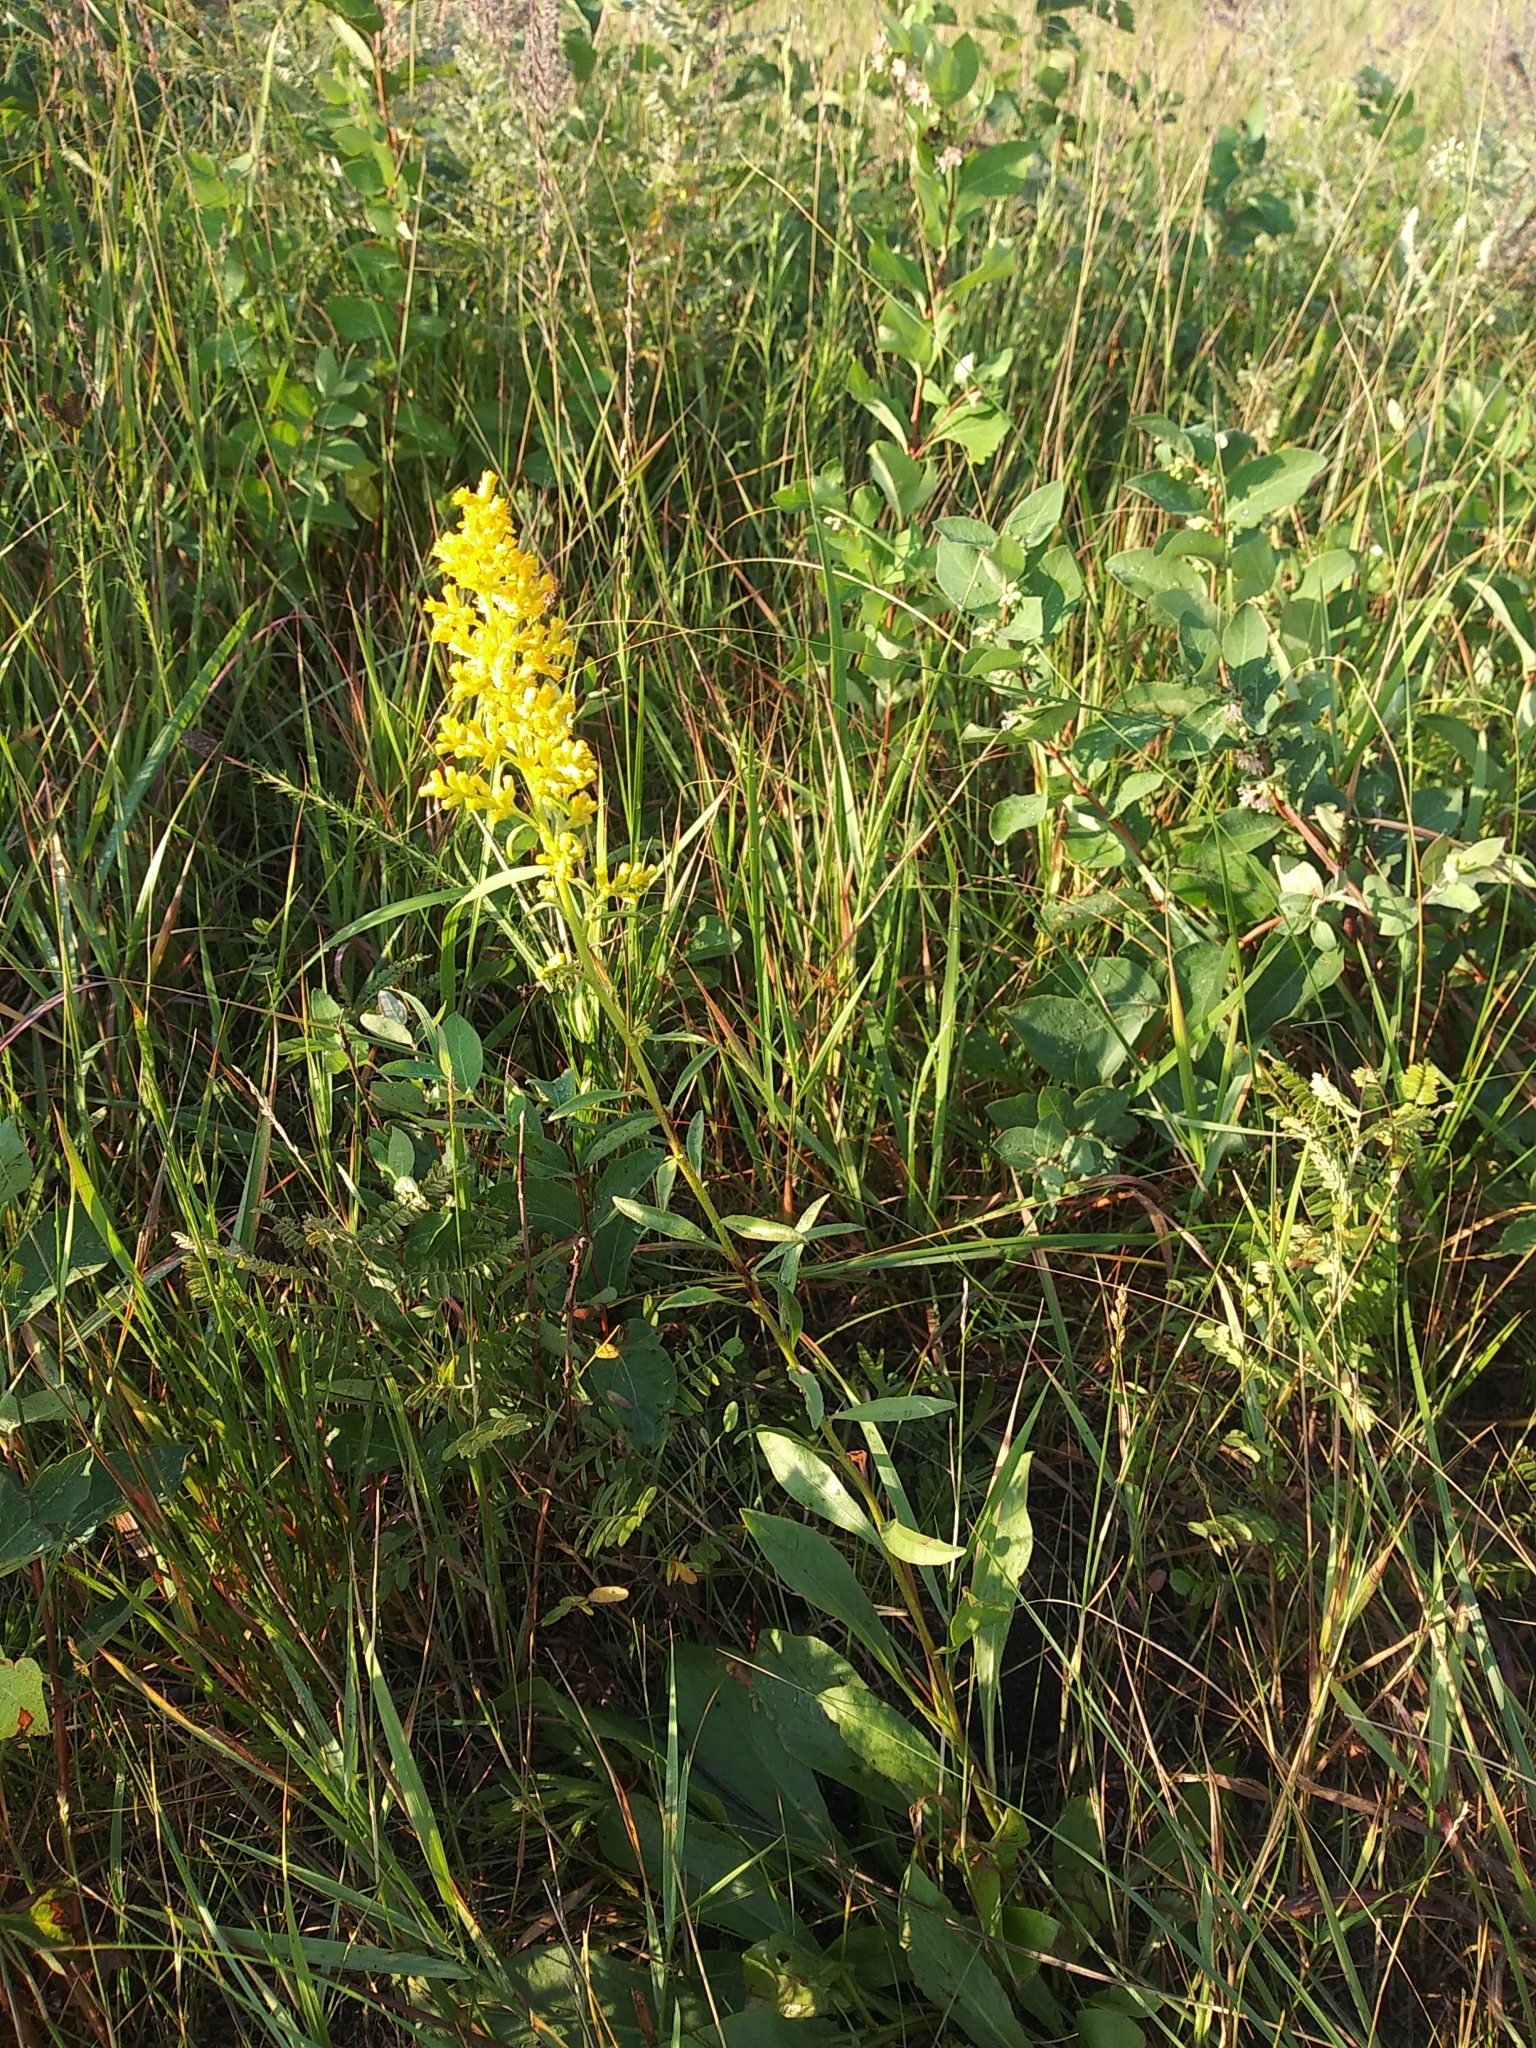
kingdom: Plantae
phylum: Tracheophyta
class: Magnoliopsida
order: Asterales
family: Asteraceae
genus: Solidago
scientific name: Solidago rigidiuscula
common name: Stiff-leaved showy goldenrod
